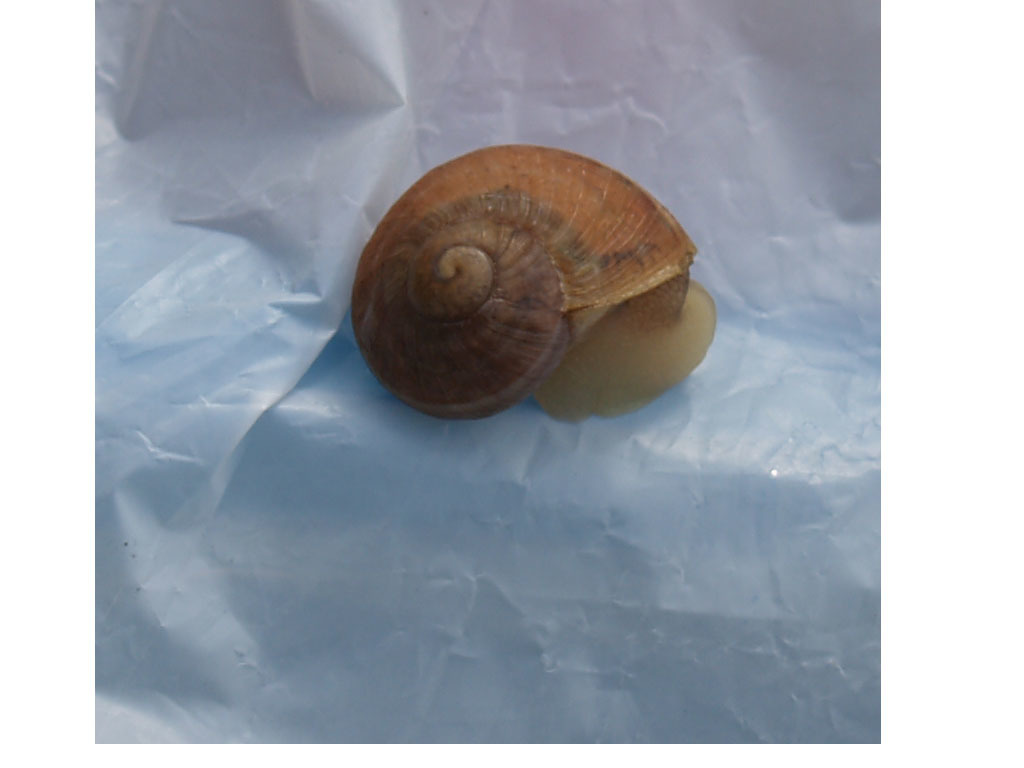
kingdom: Animalia
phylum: Mollusca
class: Gastropoda
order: Stylommatophora
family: Helicidae
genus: Cornu
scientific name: Cornu aspersum
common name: Brown garden snail
